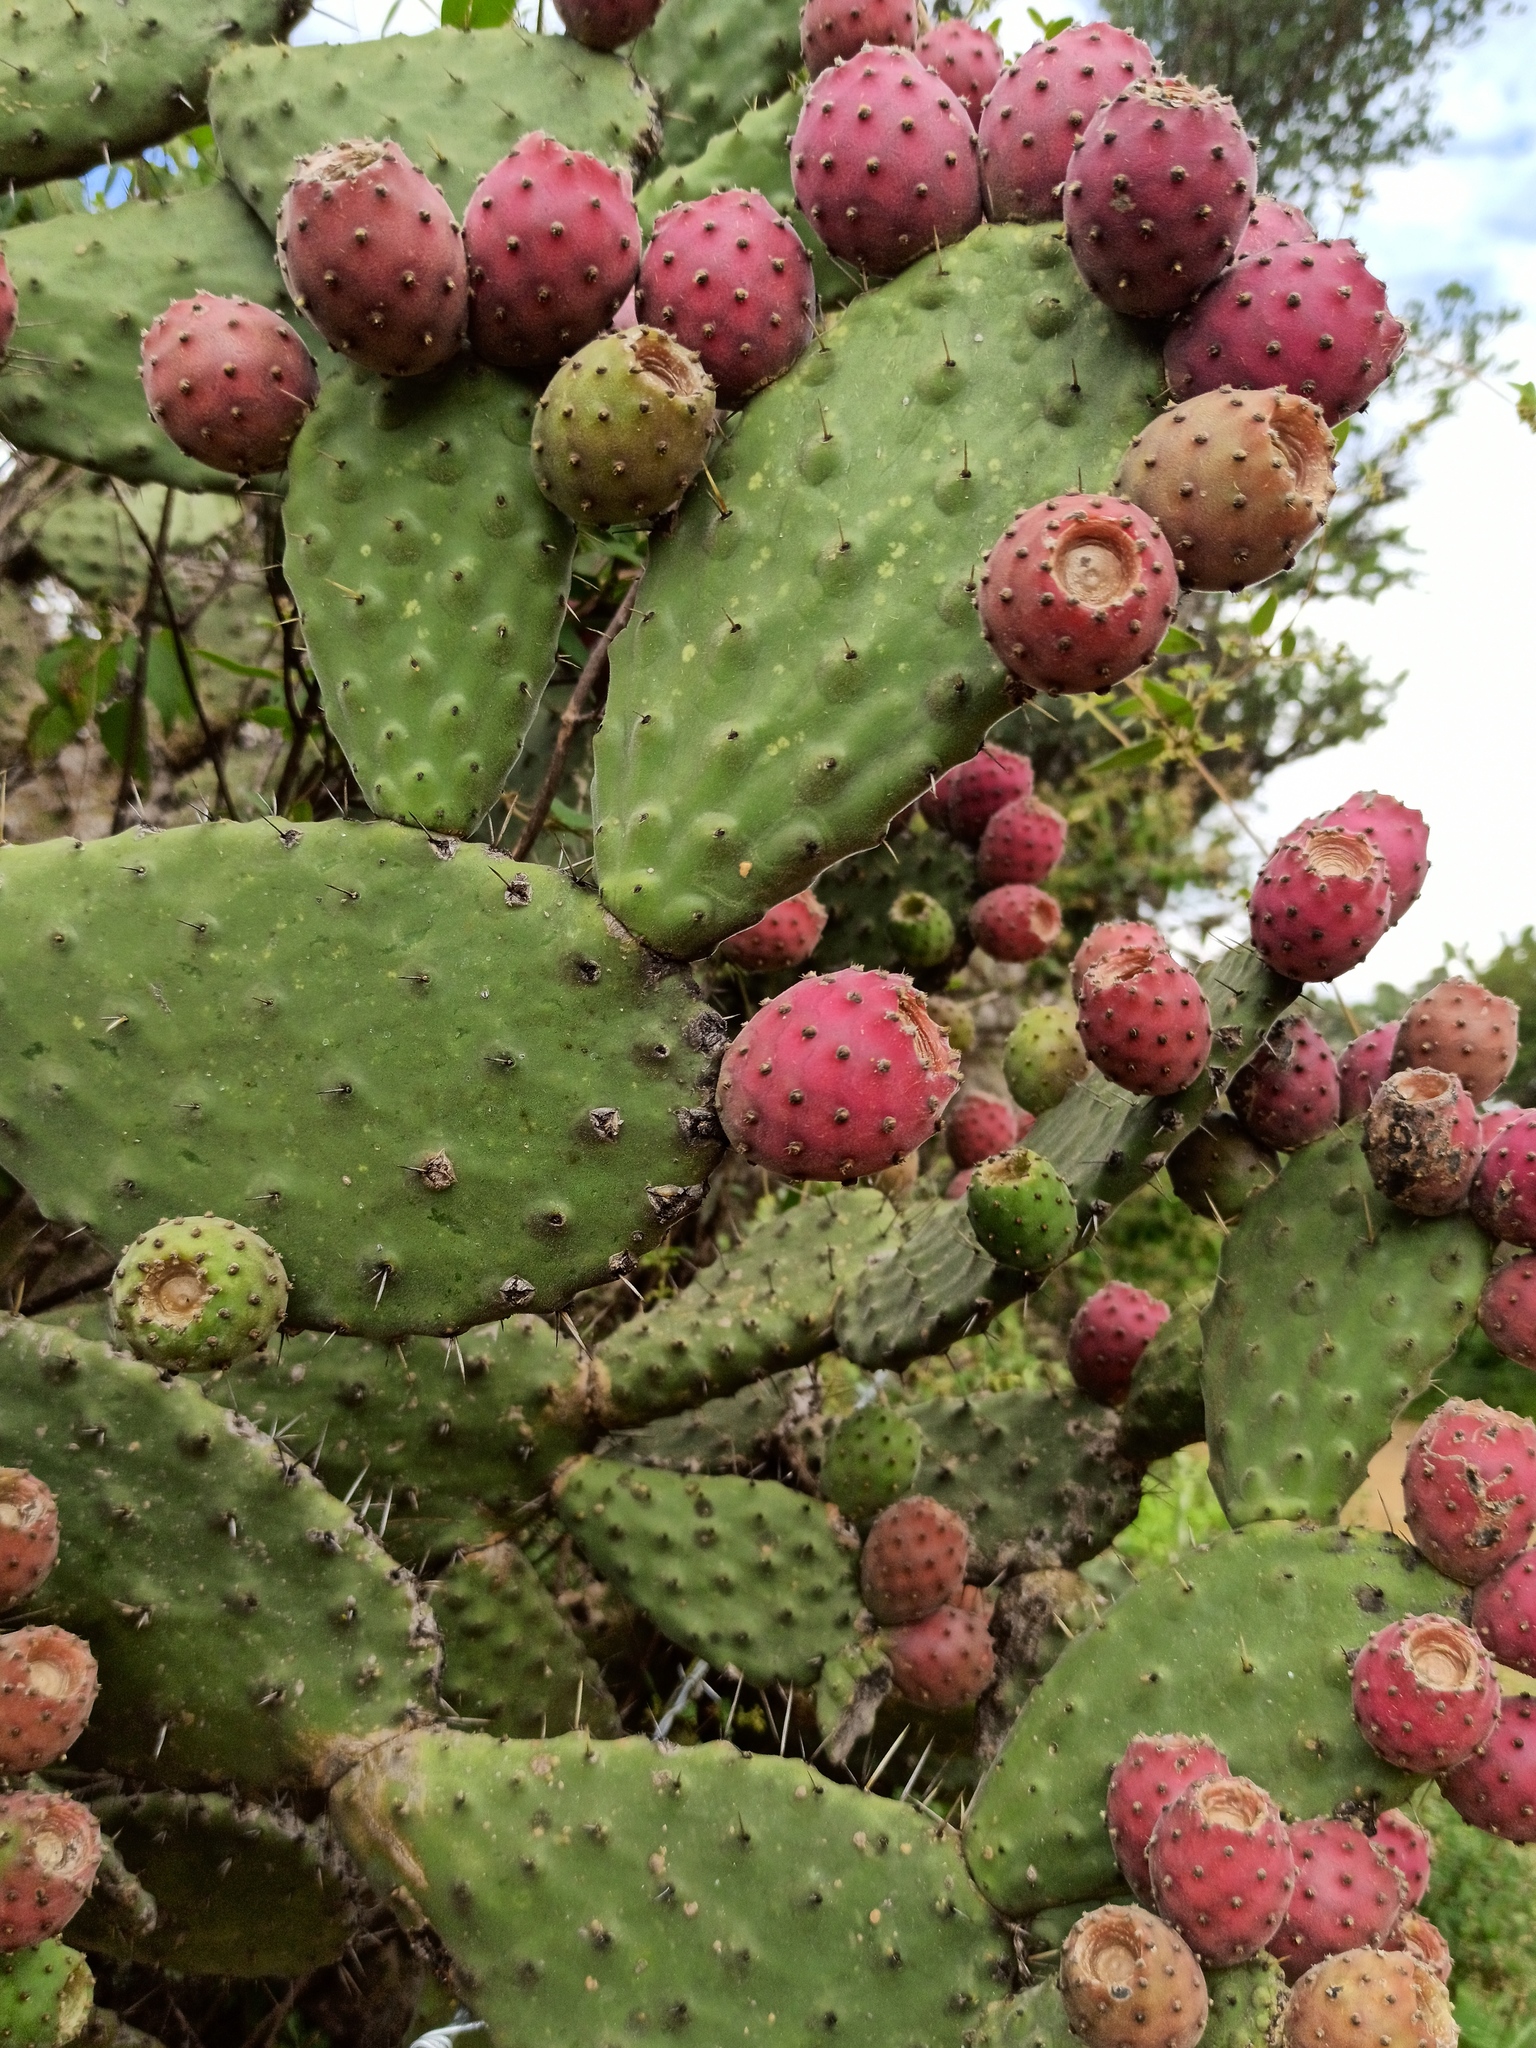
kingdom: Plantae
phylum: Tracheophyta
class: Magnoliopsida
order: Caryophyllales
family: Cactaceae
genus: Opuntia
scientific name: Opuntia tomentosa
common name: Woollyjoint pricklypear
